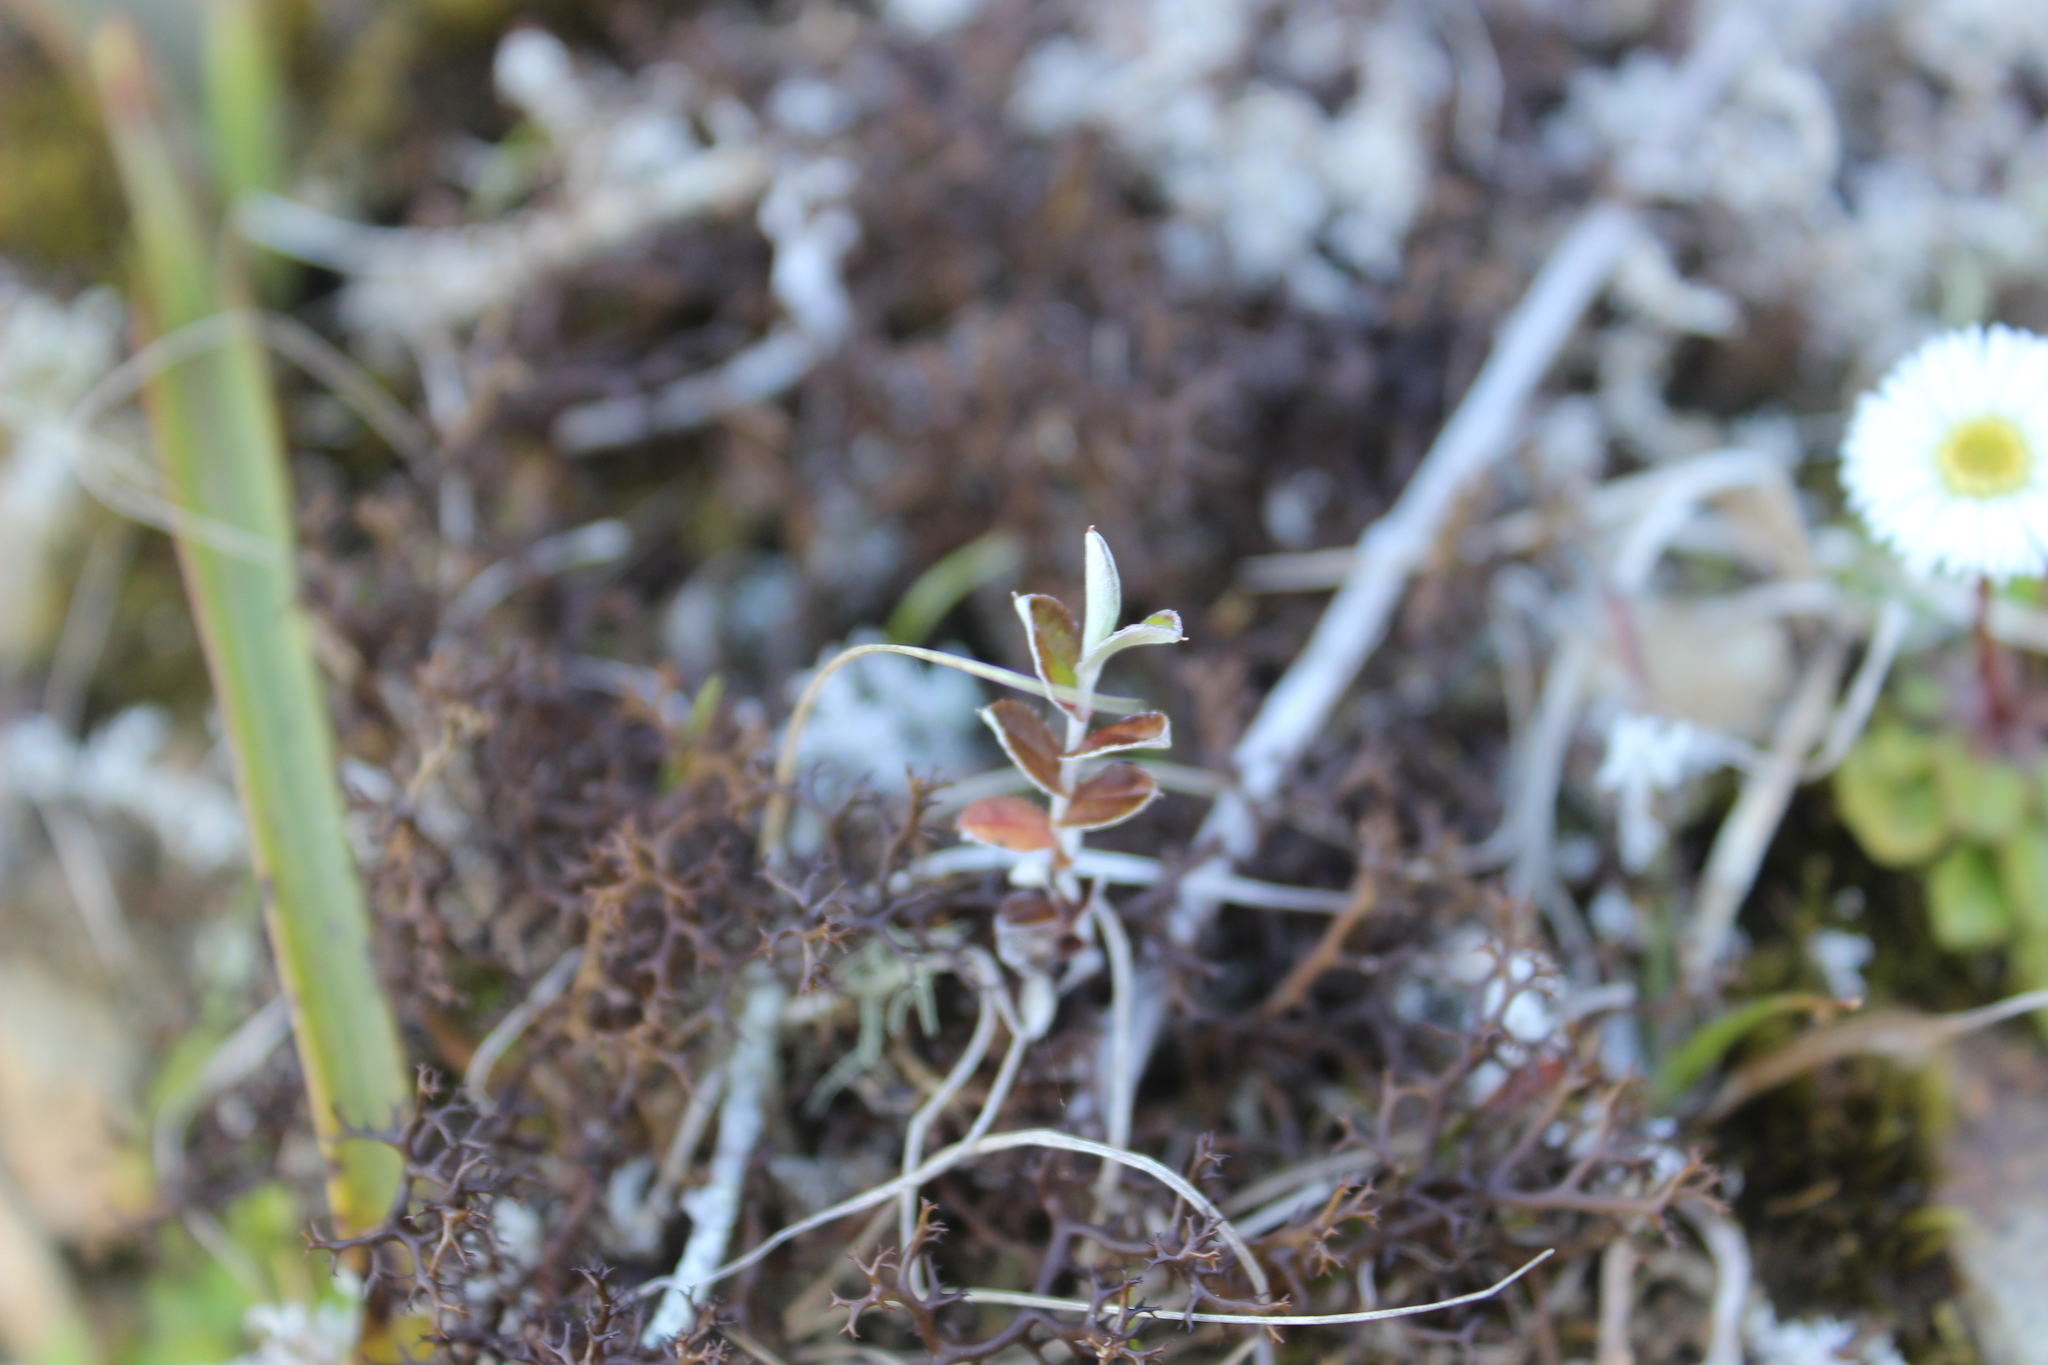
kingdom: Plantae
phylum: Tracheophyta
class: Magnoliopsida
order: Asterales
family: Asteraceae
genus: Anaphalioides
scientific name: Anaphalioides bellidioides
